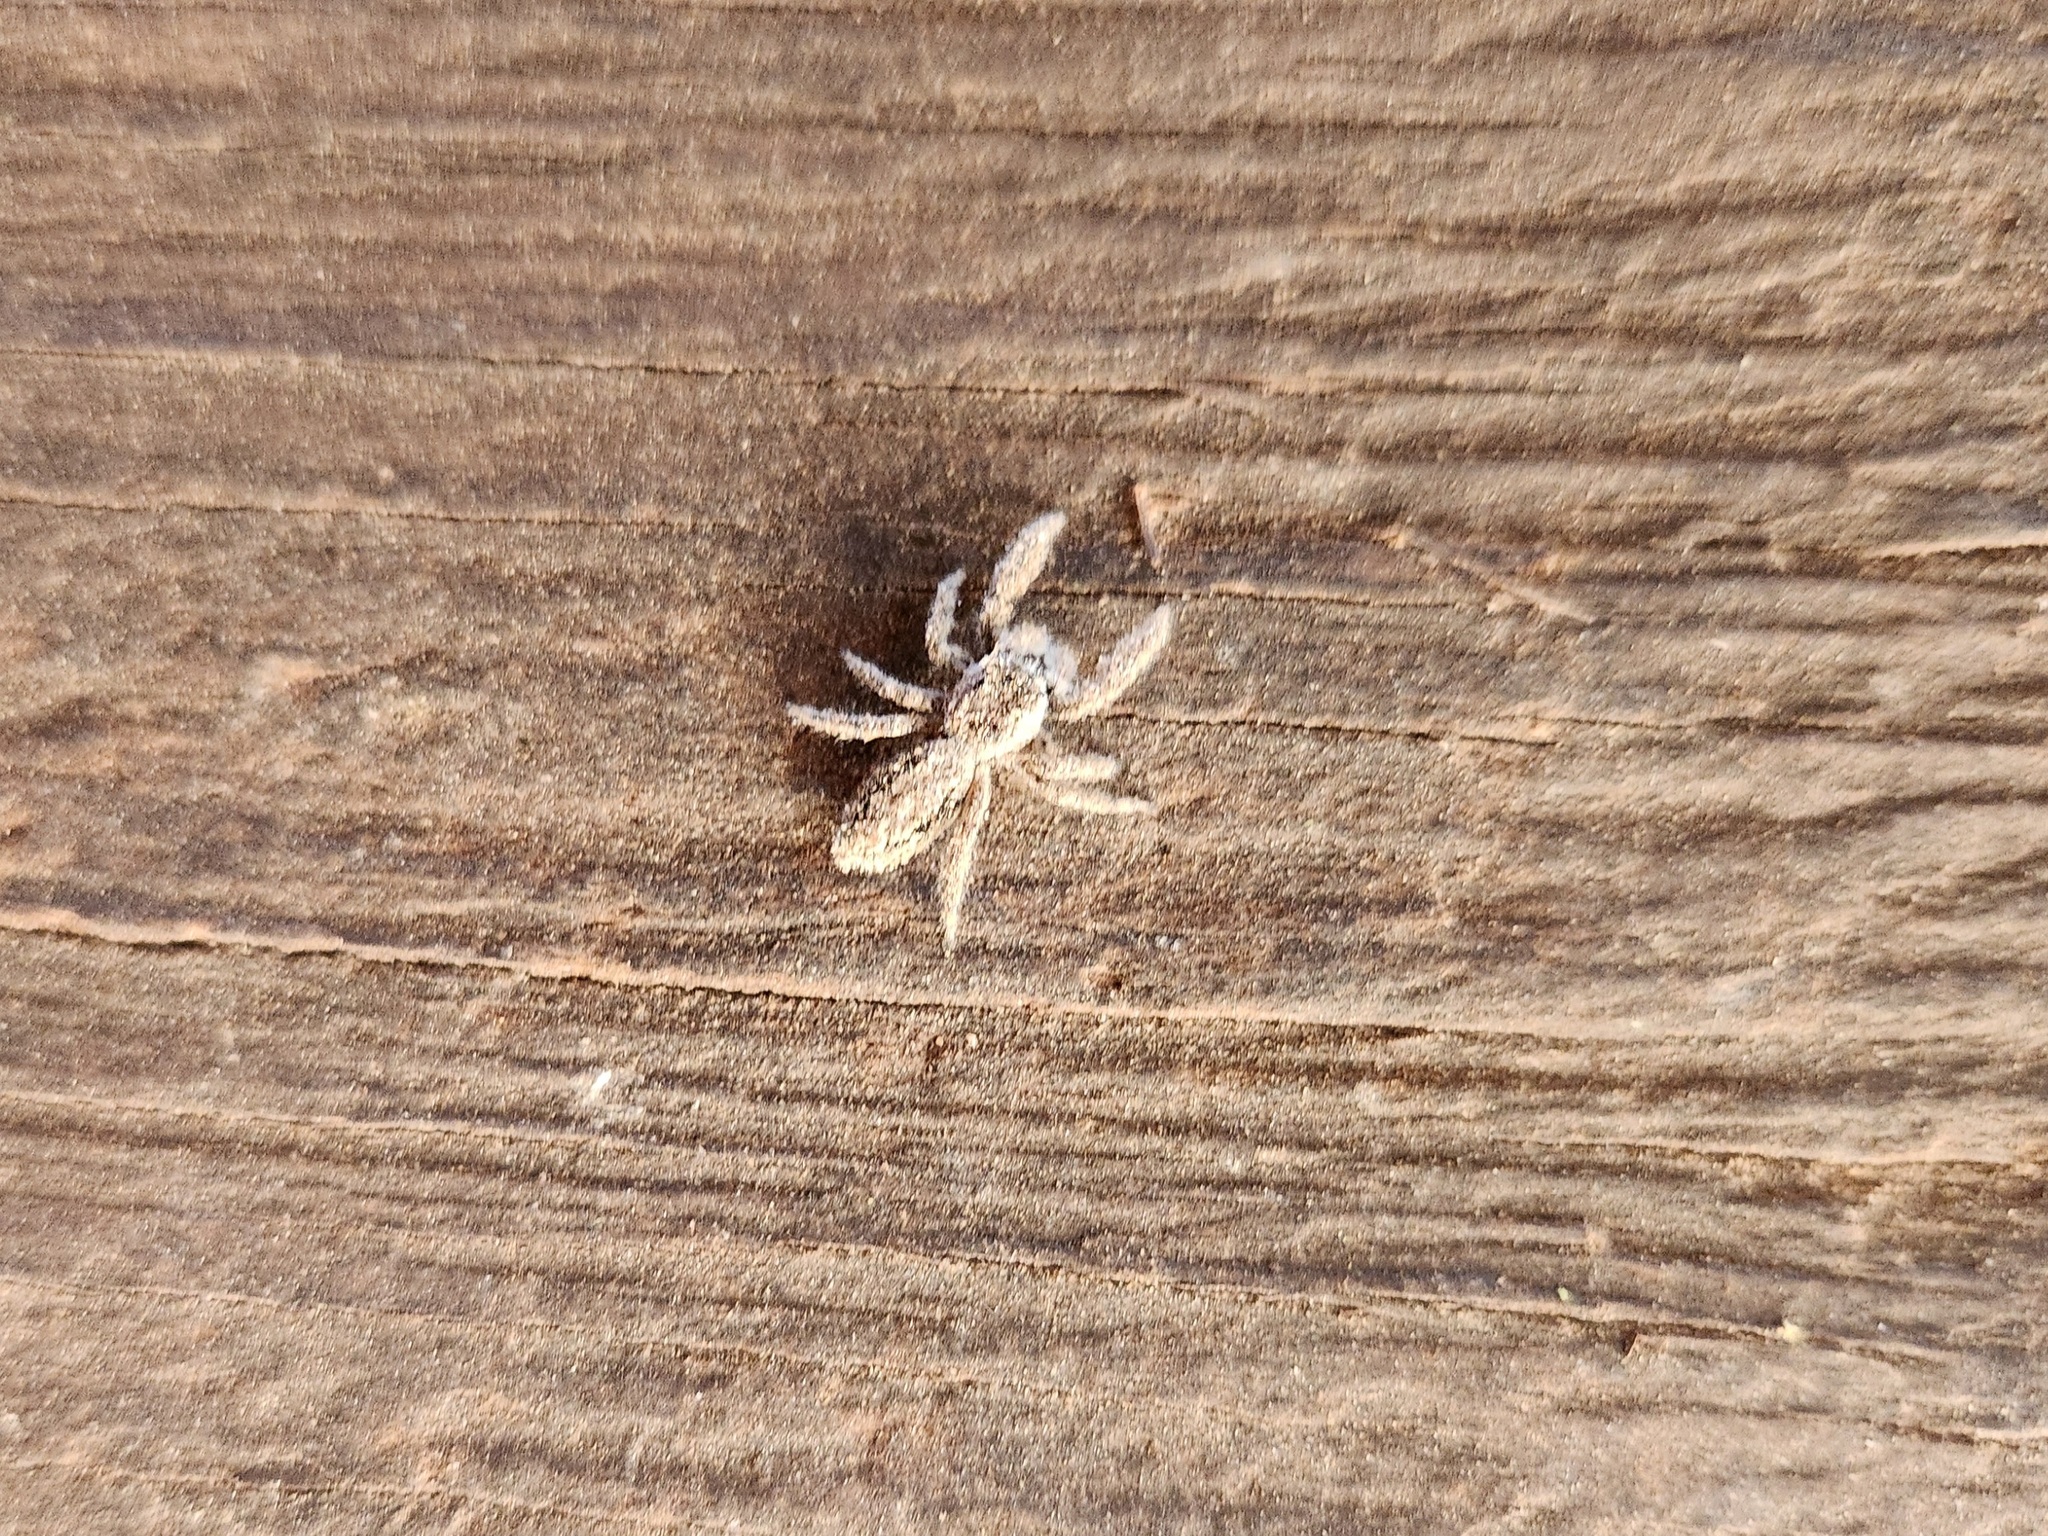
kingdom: Animalia
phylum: Arthropoda
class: Arachnida
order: Araneae
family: Salticidae
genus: Platycryptus
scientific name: Platycryptus undatus
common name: Tan jumping spider
